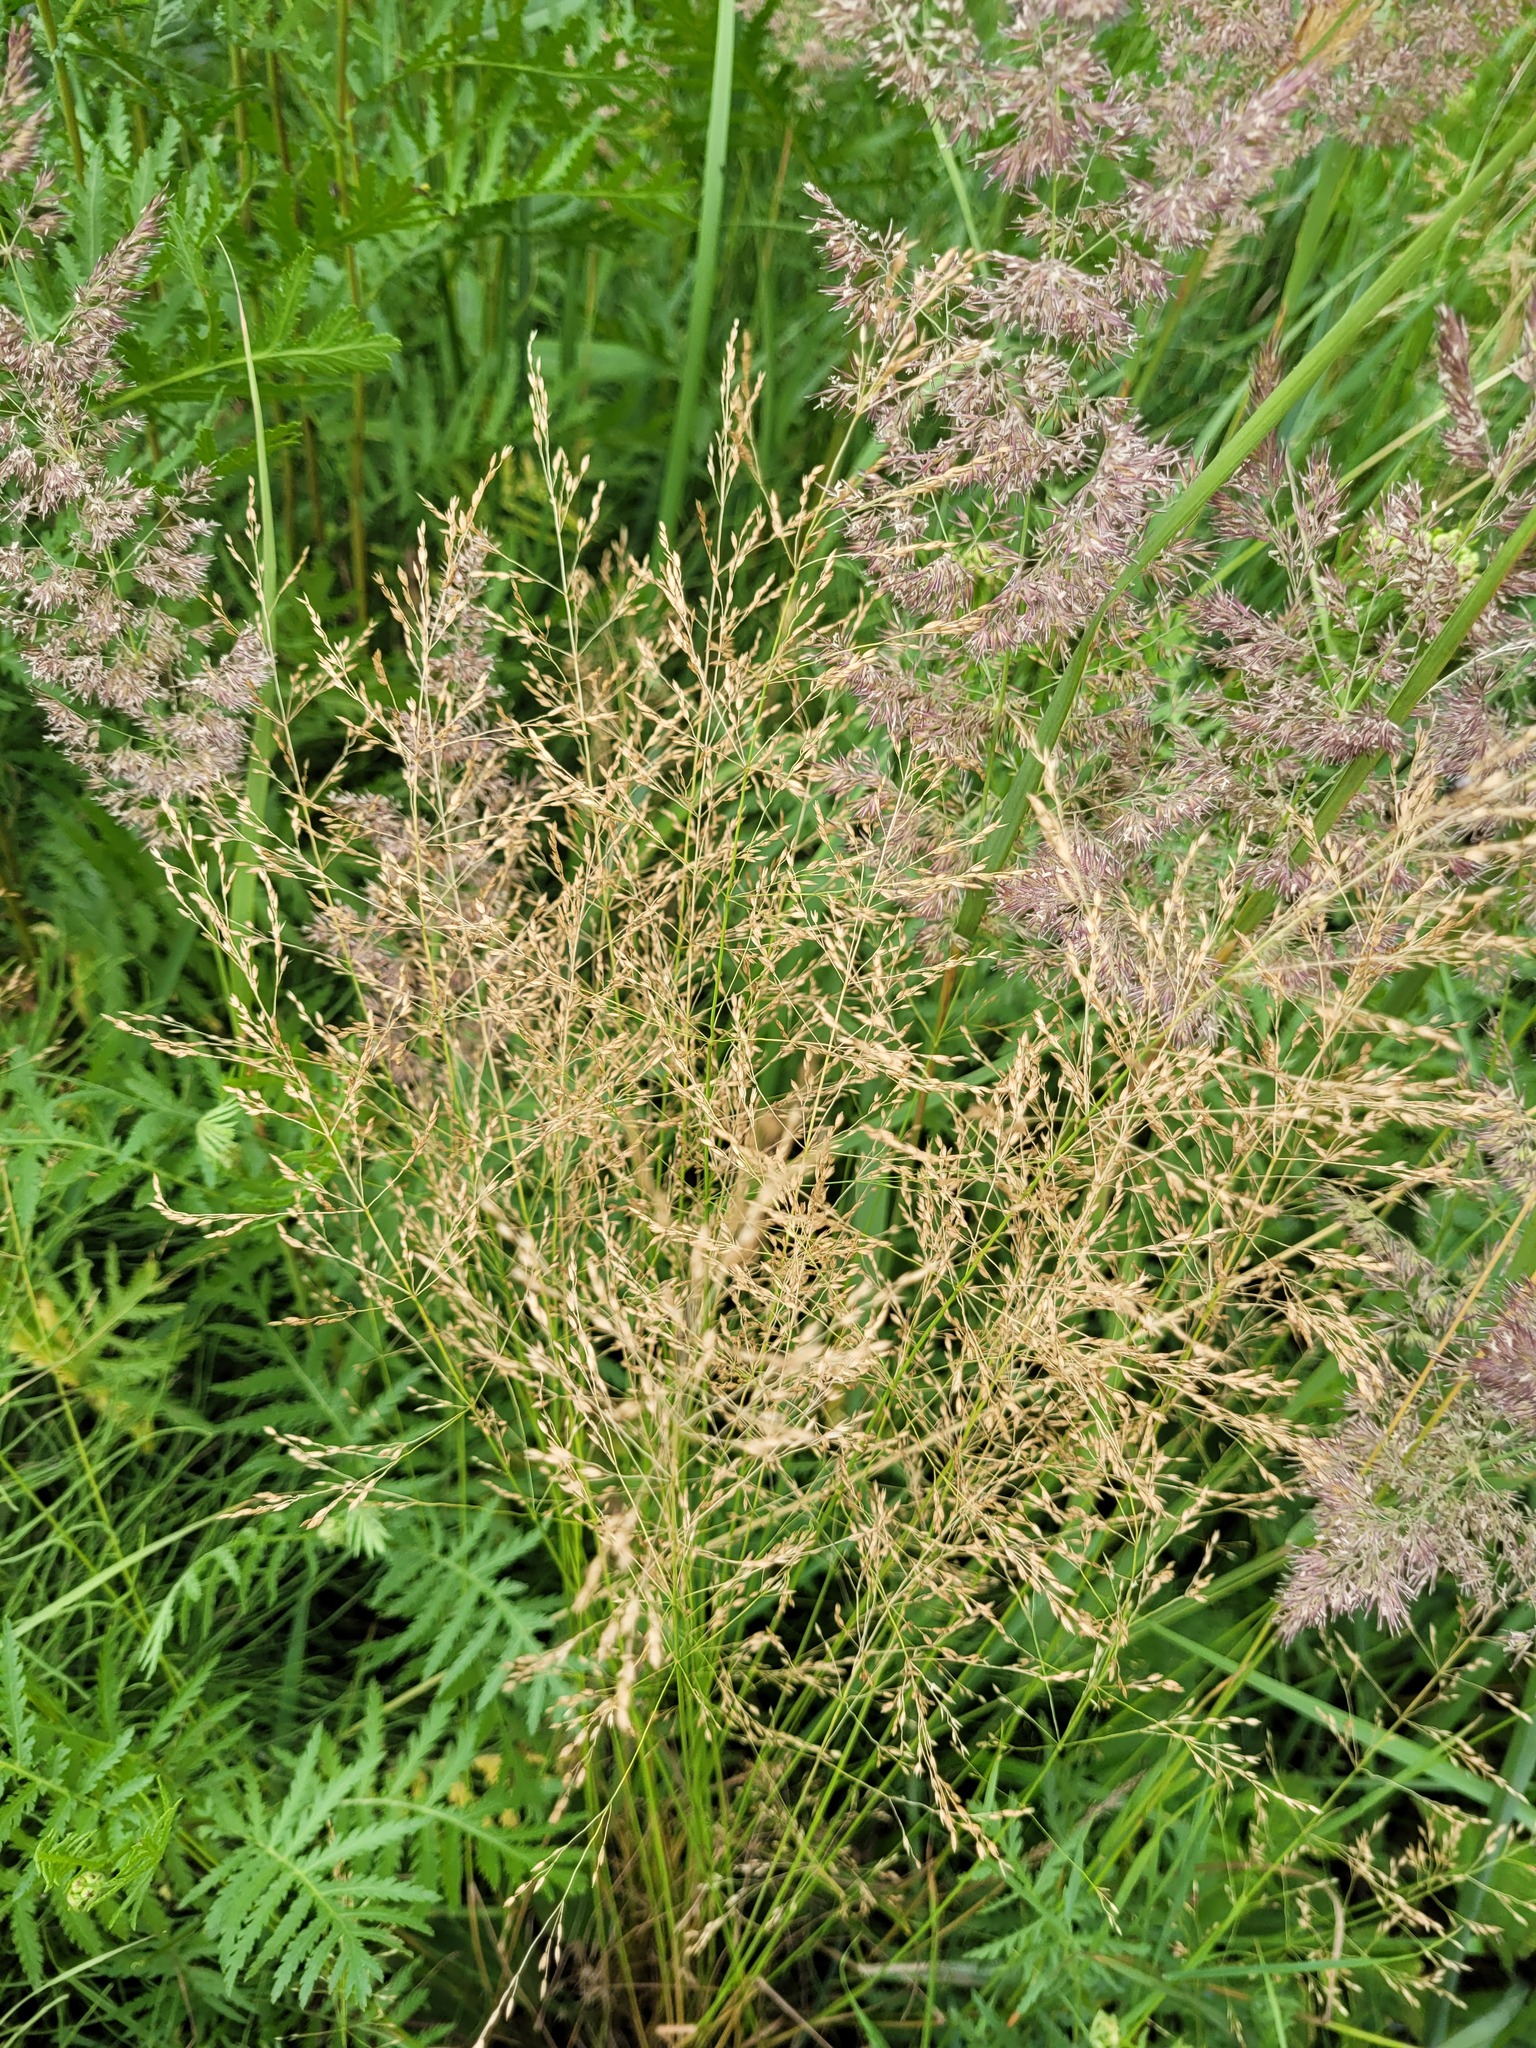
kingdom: Plantae
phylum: Tracheophyta
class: Liliopsida
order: Poales
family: Poaceae
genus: Poa
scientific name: Poa palustris
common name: Swamp meadow-grass
